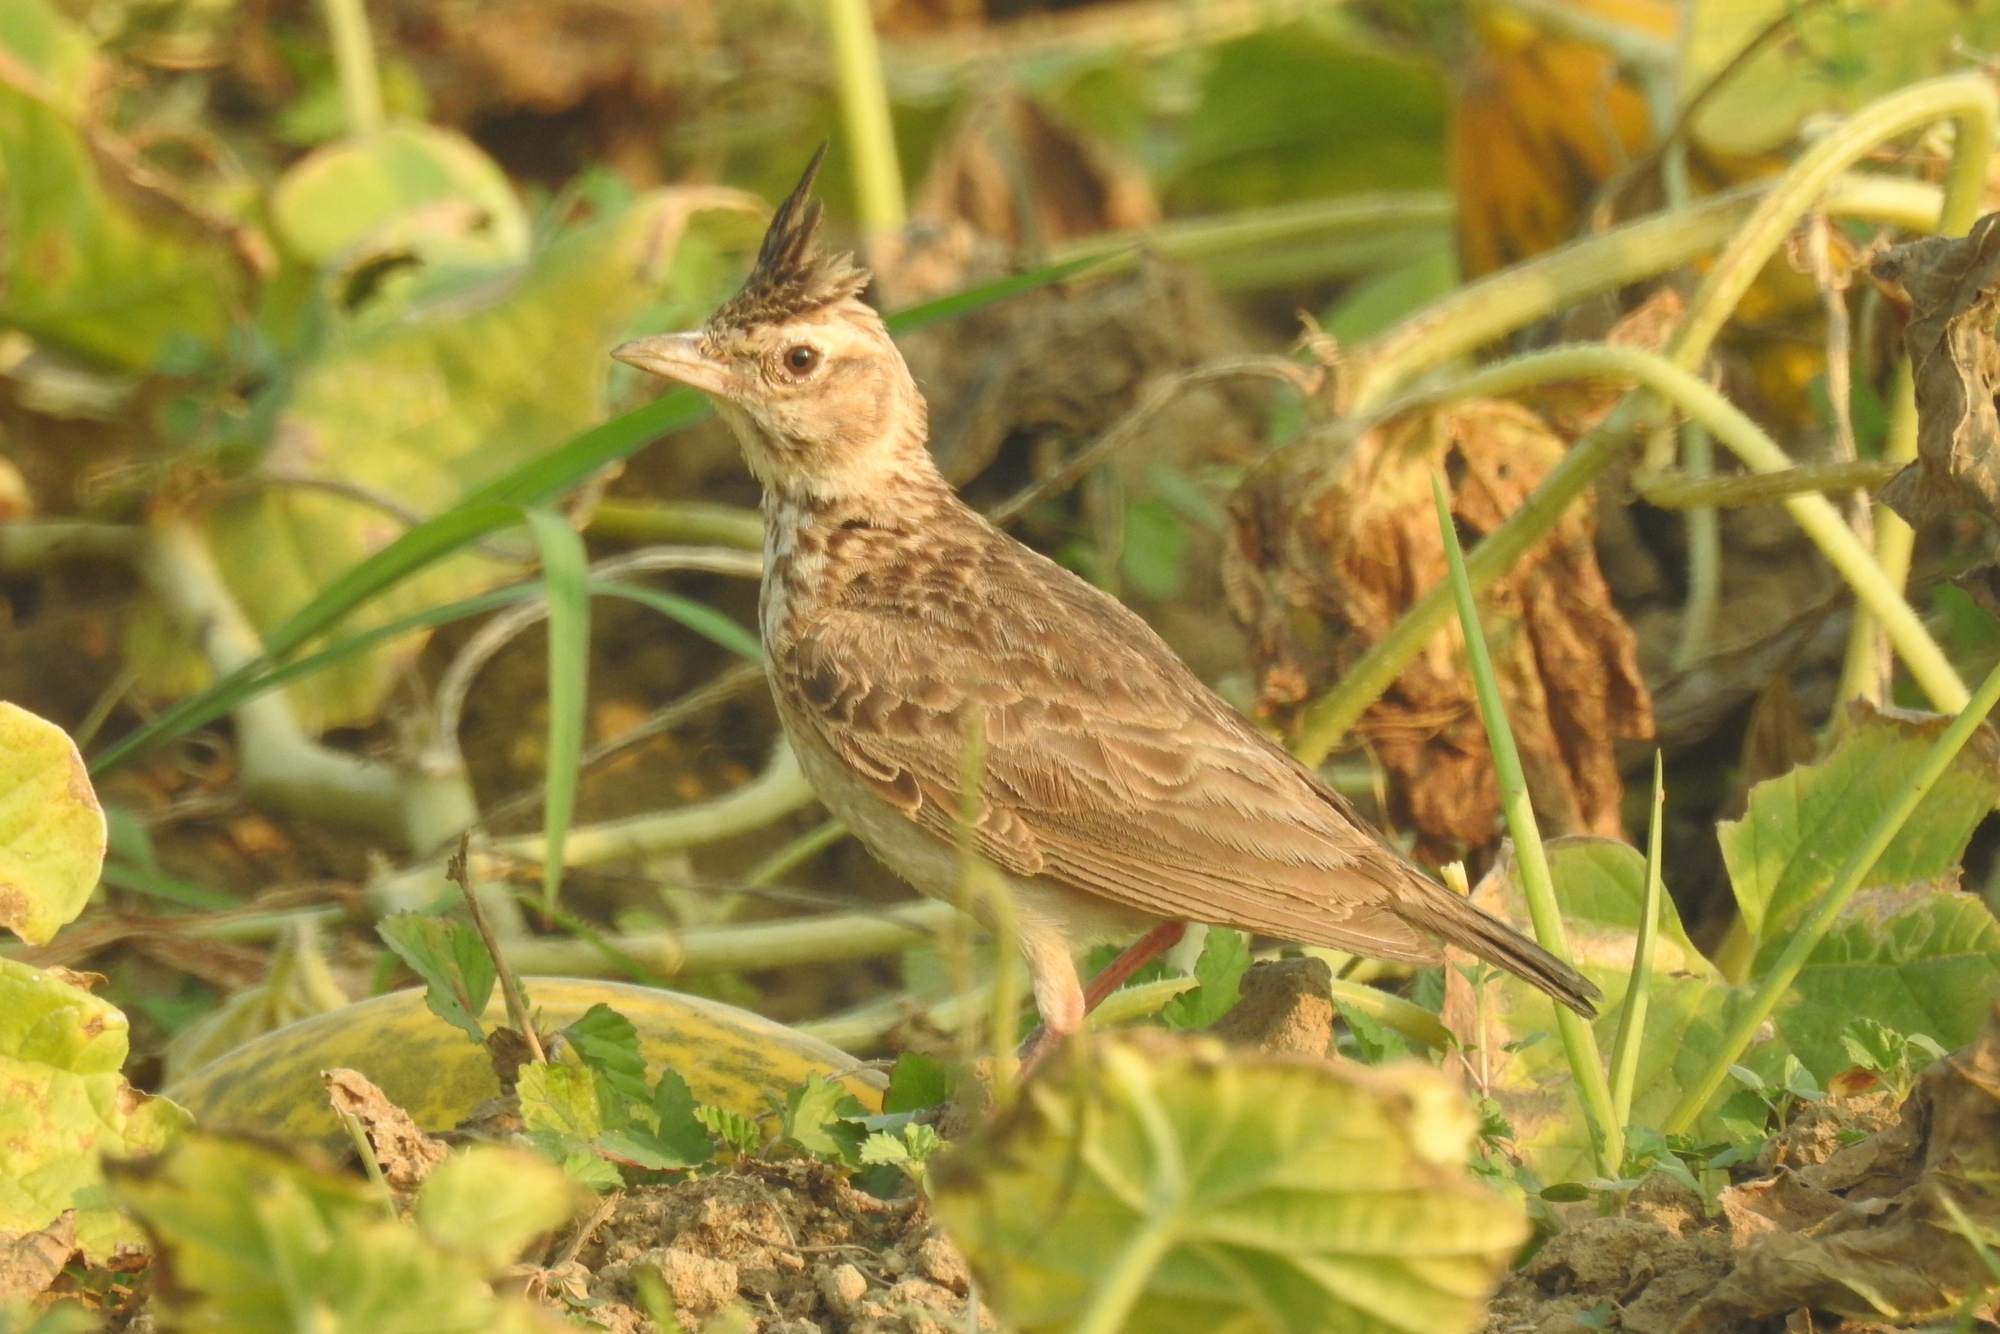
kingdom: Animalia
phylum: Chordata
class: Aves
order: Passeriformes
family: Alaudidae
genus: Galerida
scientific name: Galerida malabarica
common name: Malabar lark
